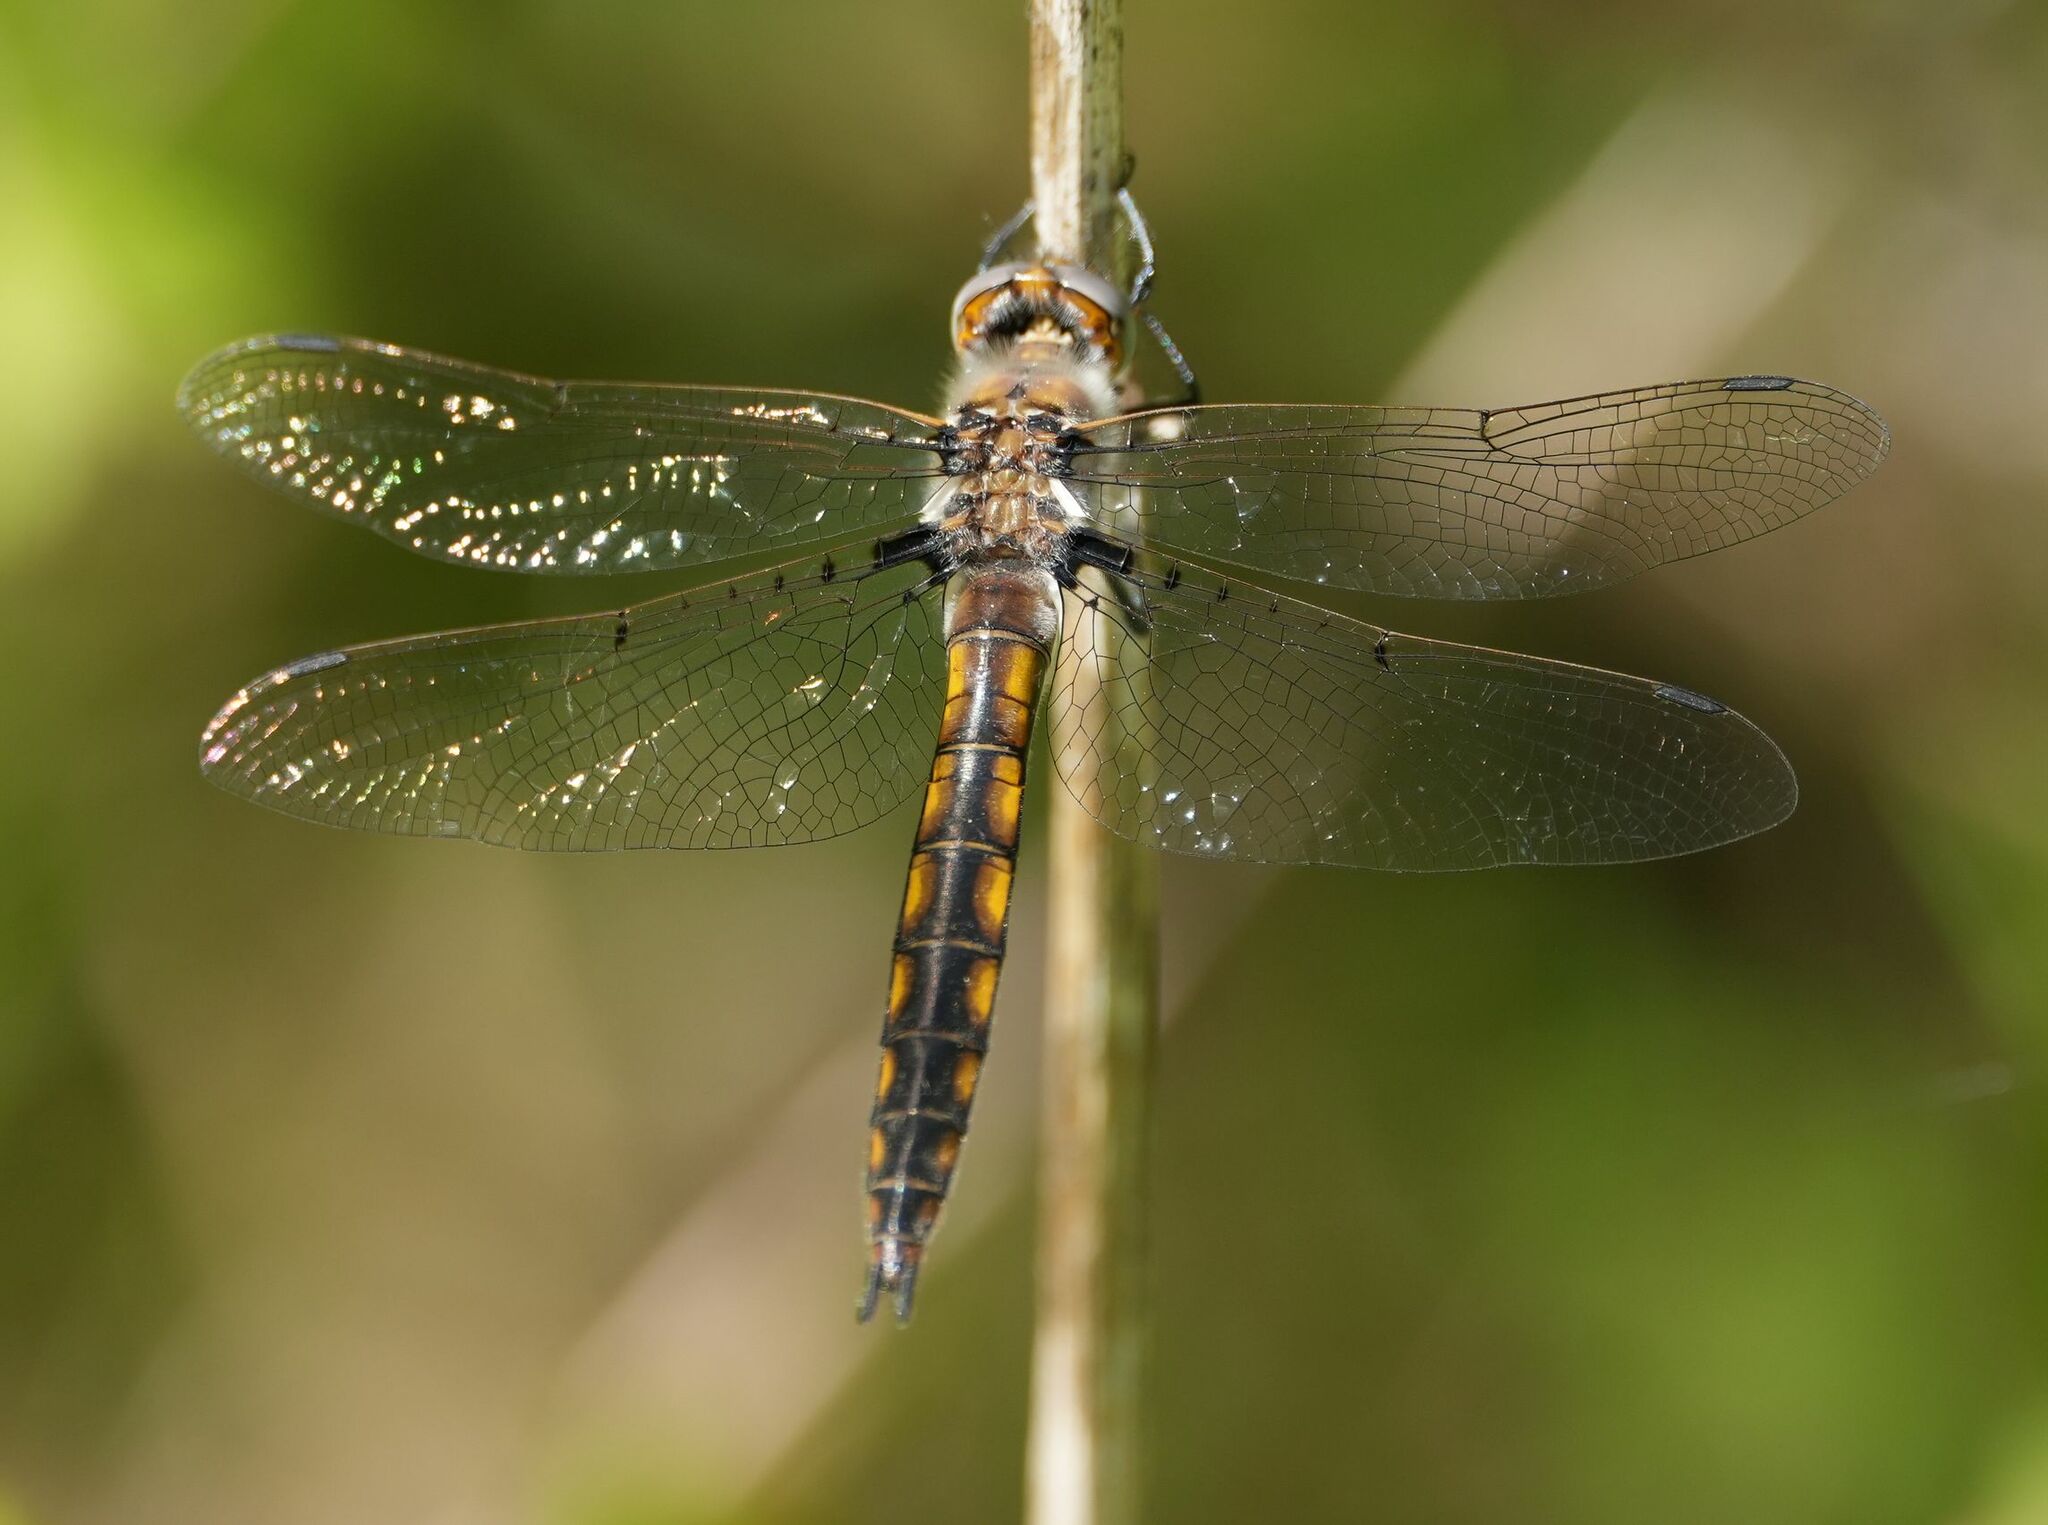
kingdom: Animalia
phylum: Arthropoda
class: Insecta
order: Odonata
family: Corduliidae
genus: Epitheca
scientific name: Epitheca canis
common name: Beaverpond baskettail
